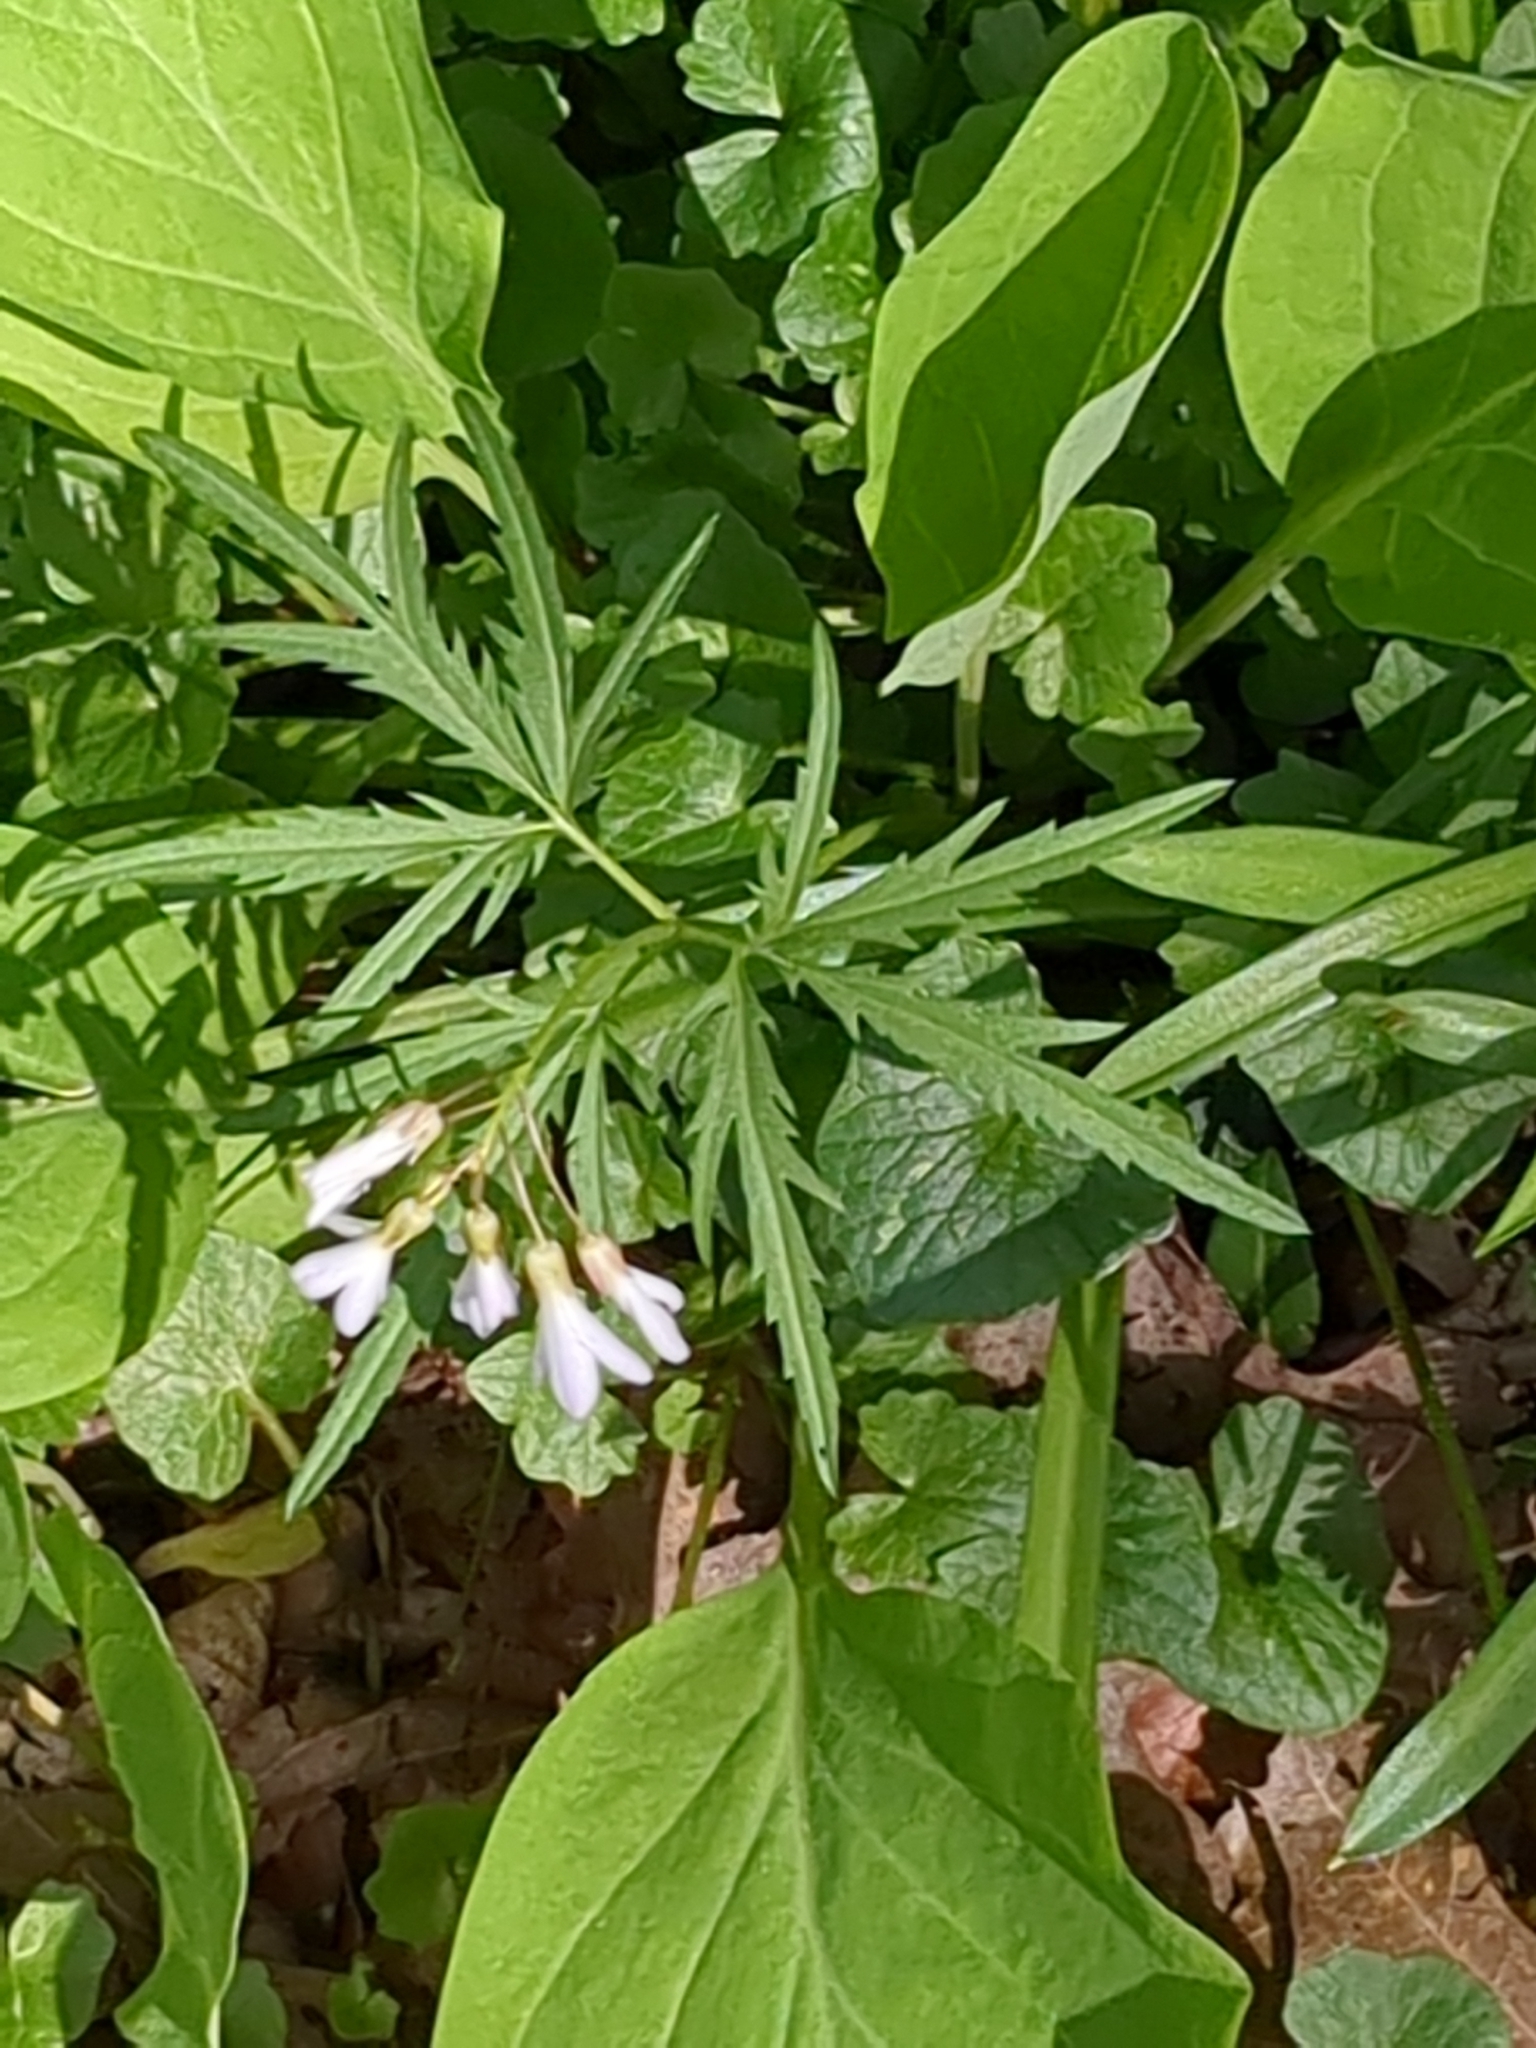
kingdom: Plantae
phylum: Tracheophyta
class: Magnoliopsida
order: Brassicales
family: Brassicaceae
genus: Cardamine
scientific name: Cardamine concatenata
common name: Cut-leaf toothcup
